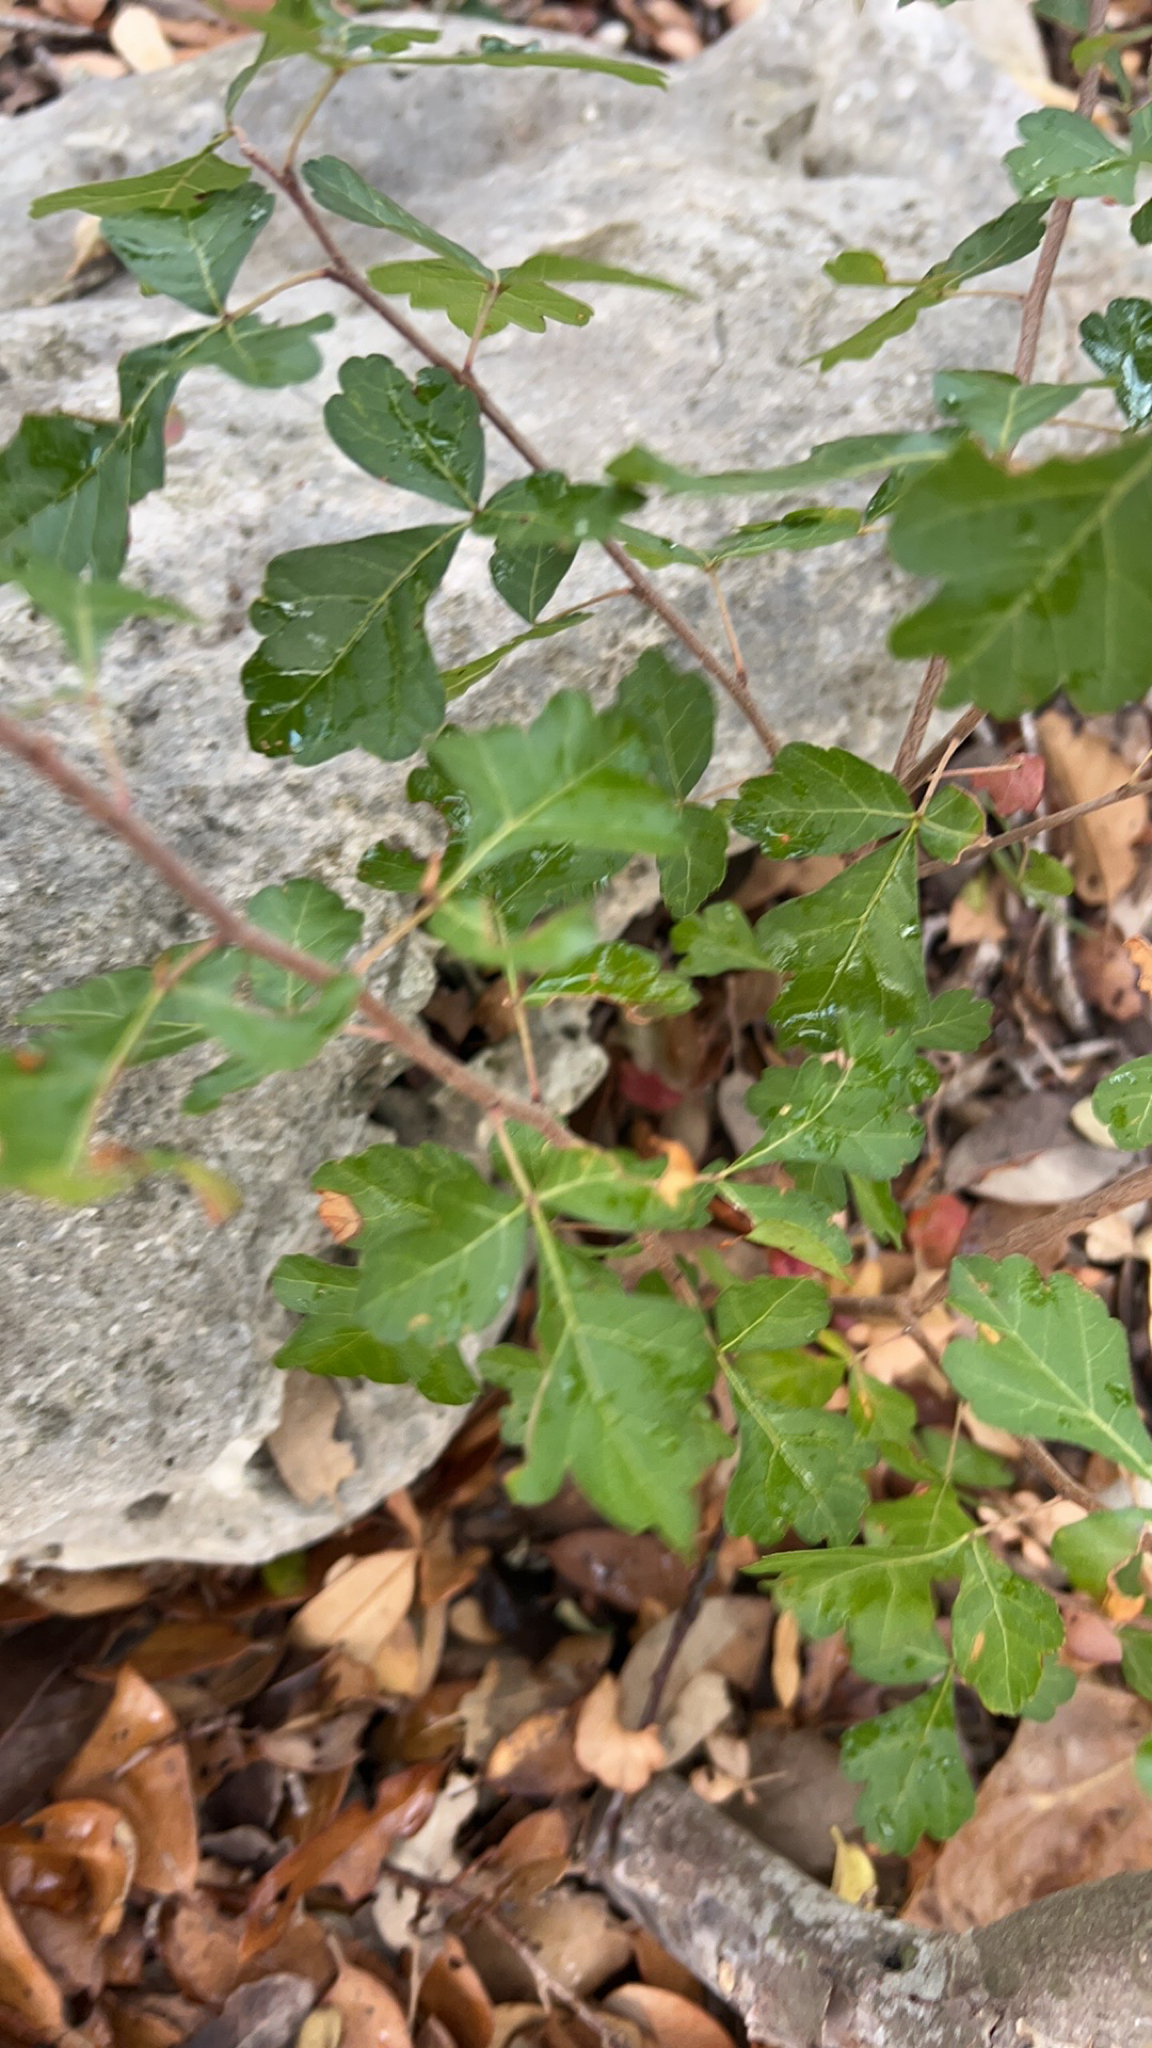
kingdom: Plantae
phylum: Tracheophyta
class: Magnoliopsida
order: Sapindales
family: Anacardiaceae
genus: Rhus
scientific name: Rhus aromatica
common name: Aromatic sumac
